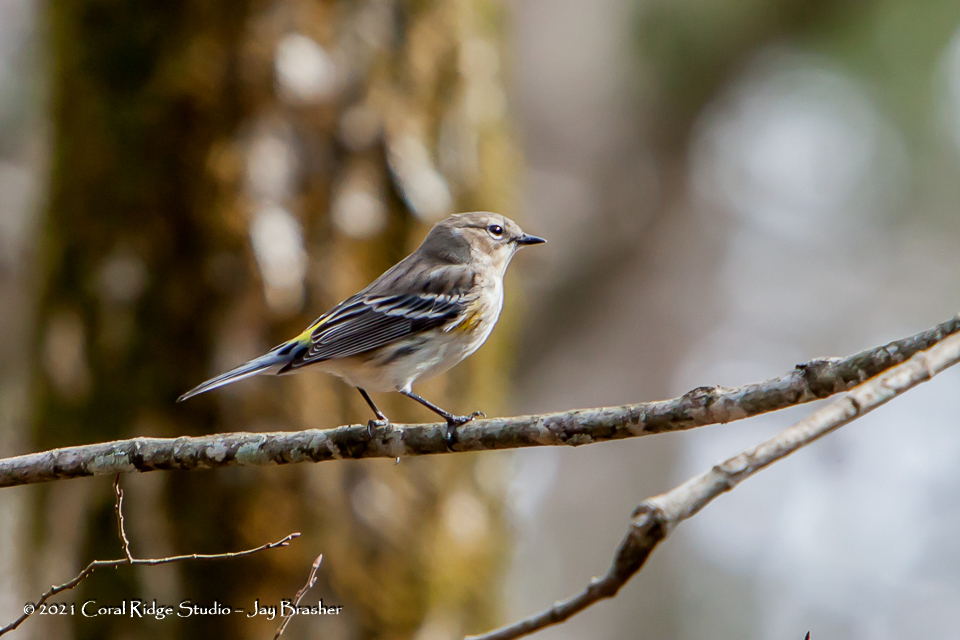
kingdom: Animalia
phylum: Chordata
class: Aves
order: Passeriformes
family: Parulidae
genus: Setophaga
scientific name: Setophaga coronata
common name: Myrtle warbler
